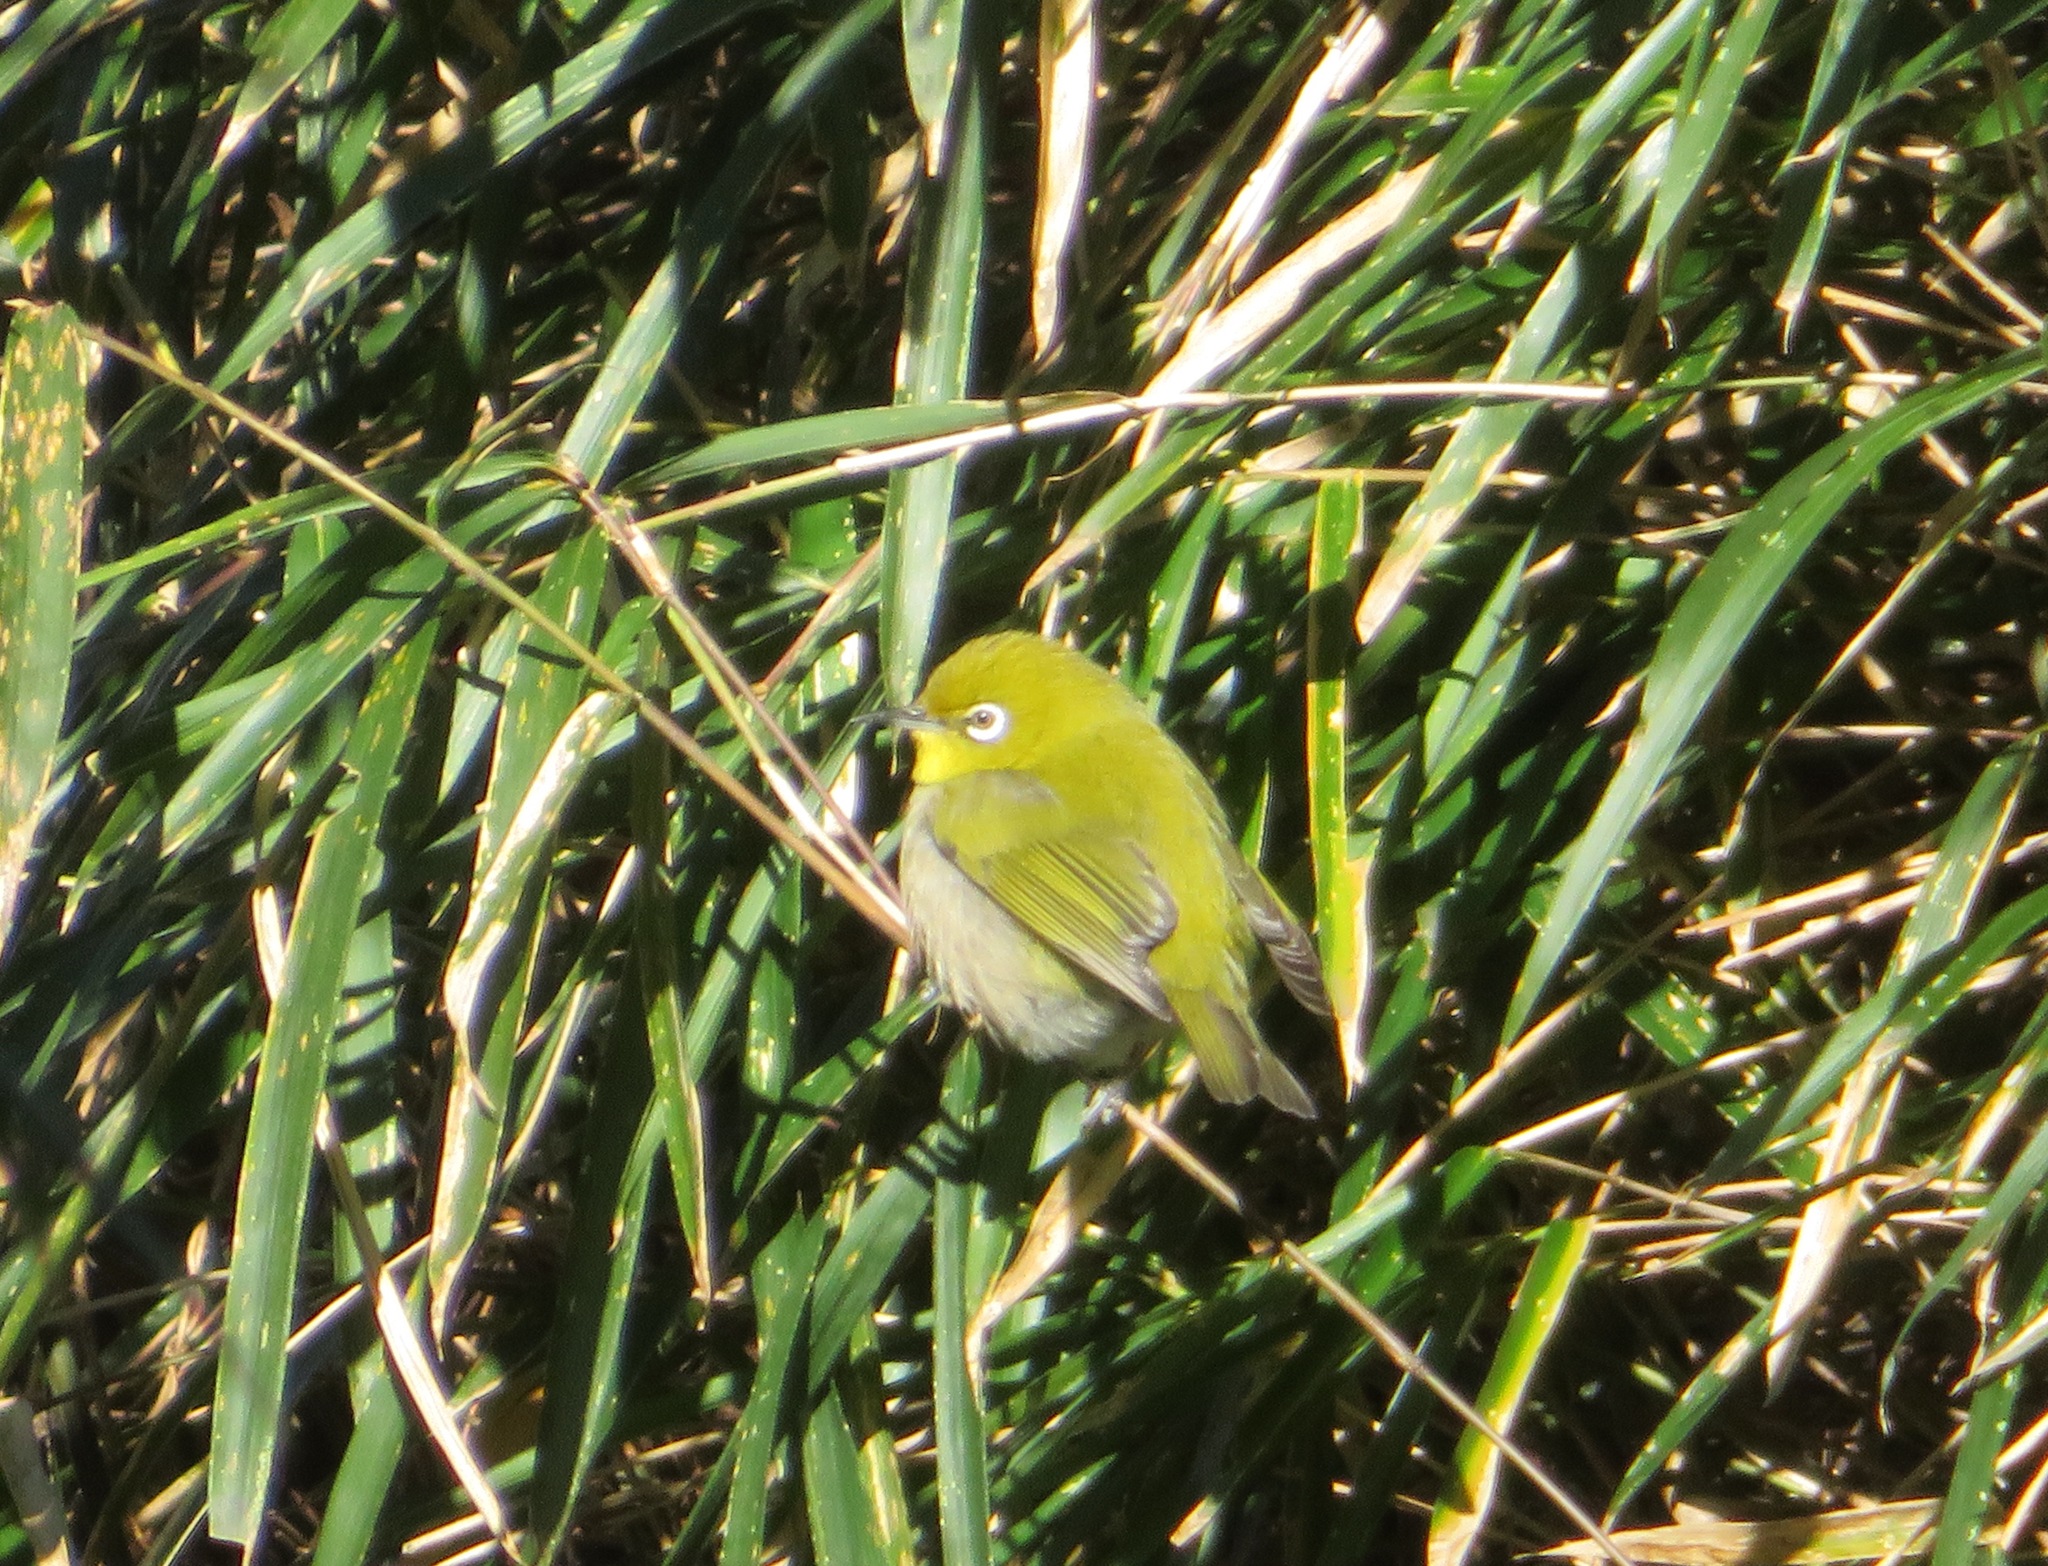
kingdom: Animalia
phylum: Chordata
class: Aves
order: Passeriformes
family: Zosteropidae
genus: Zosterops
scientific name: Zosterops japonicus
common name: Japanese white-eye
